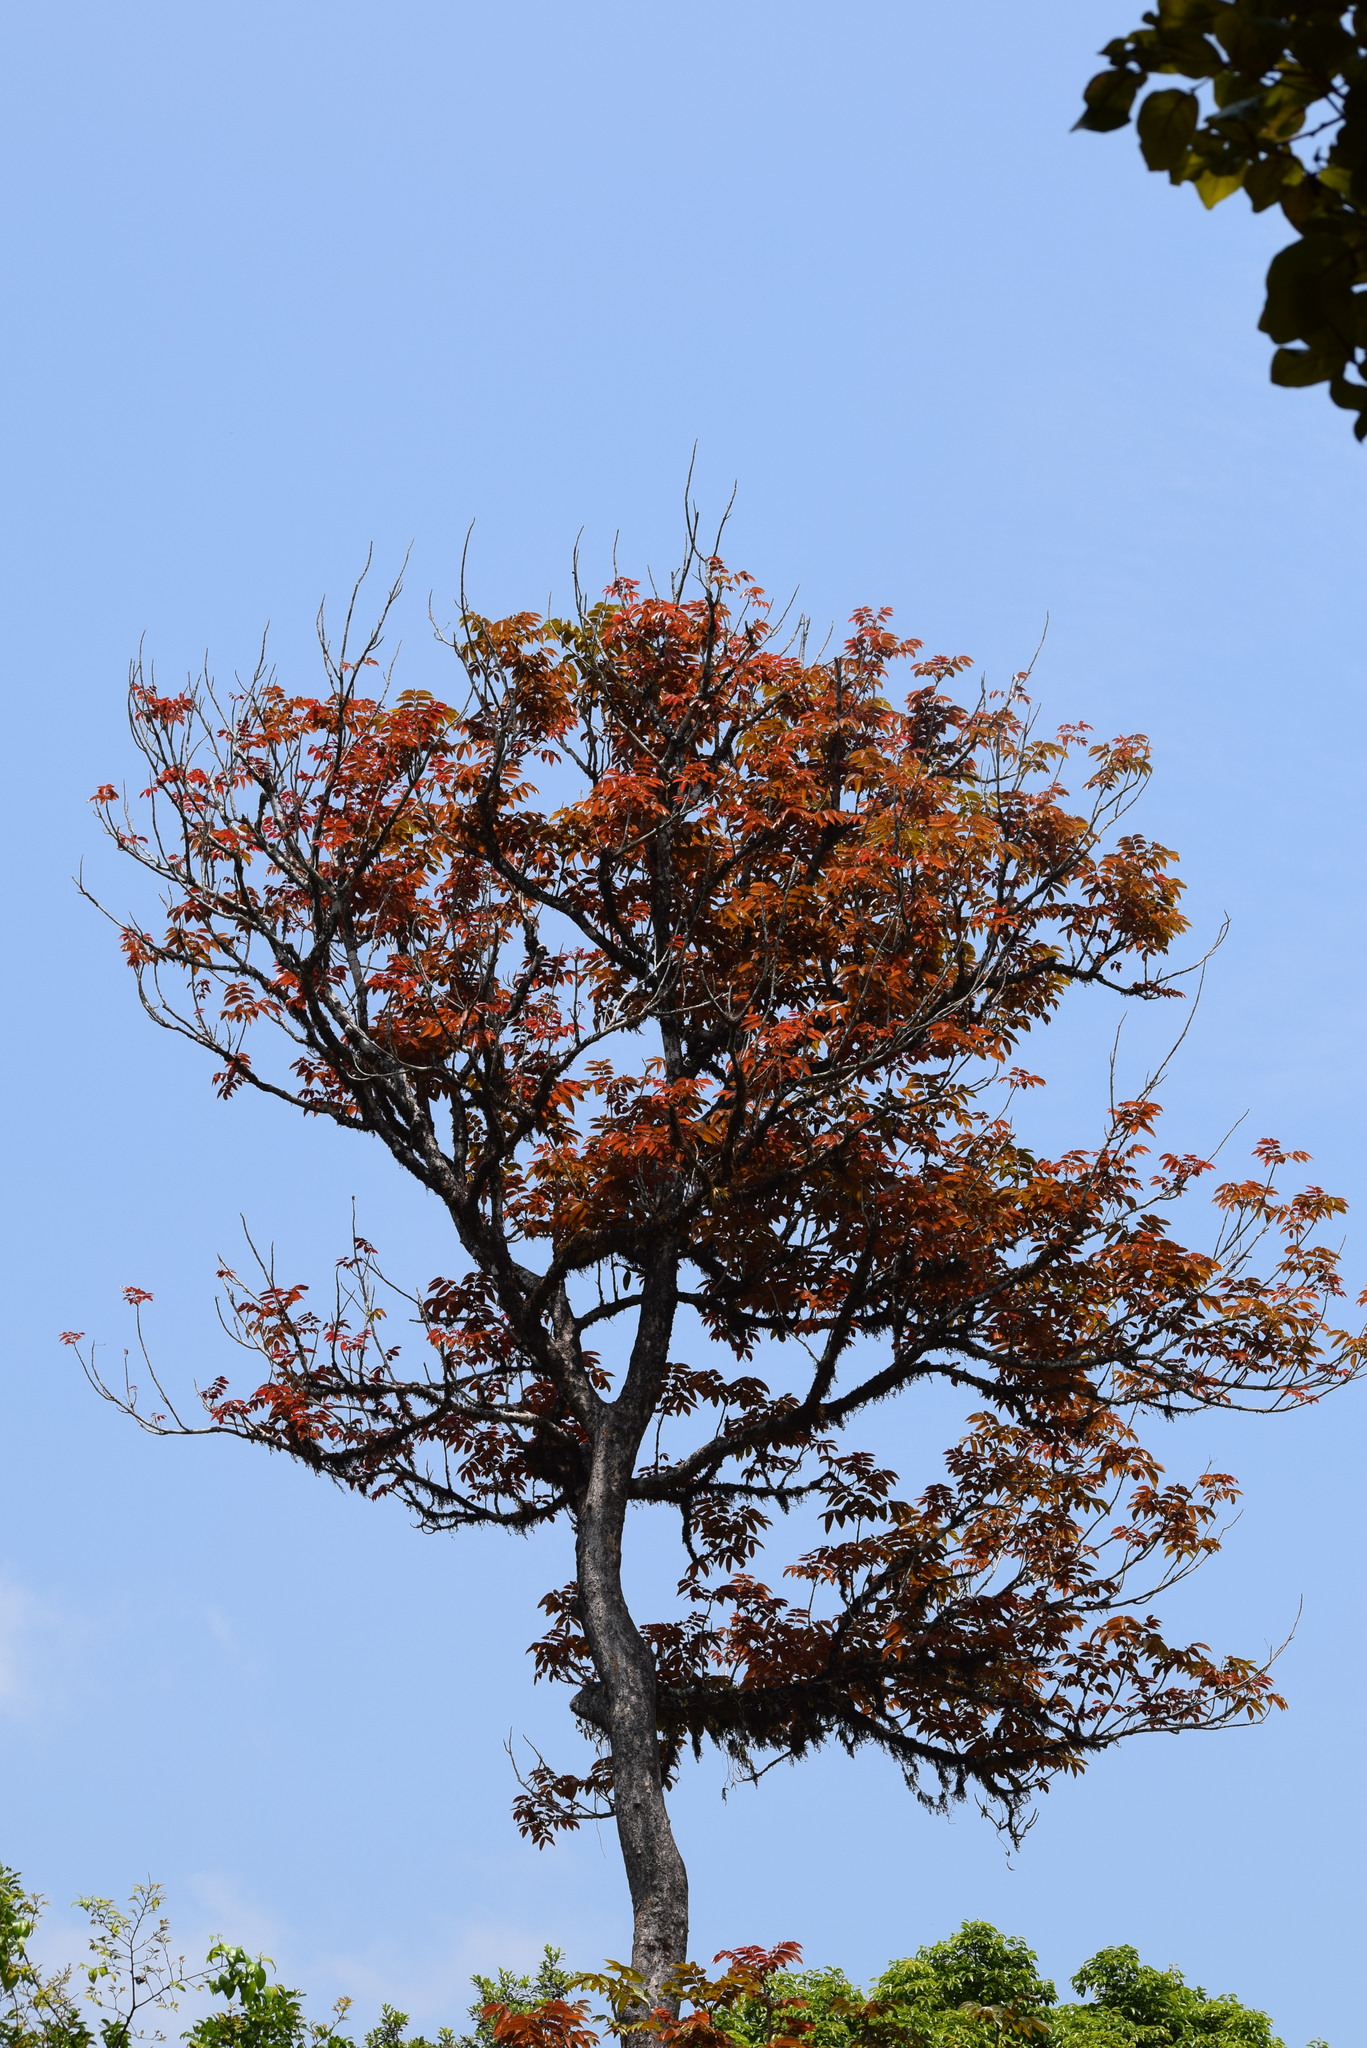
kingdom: Plantae
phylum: Tracheophyta
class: Magnoliopsida
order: Sapindales
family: Burseraceae
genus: Canarium
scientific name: Canarium strictum
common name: Indian white-mahogany
